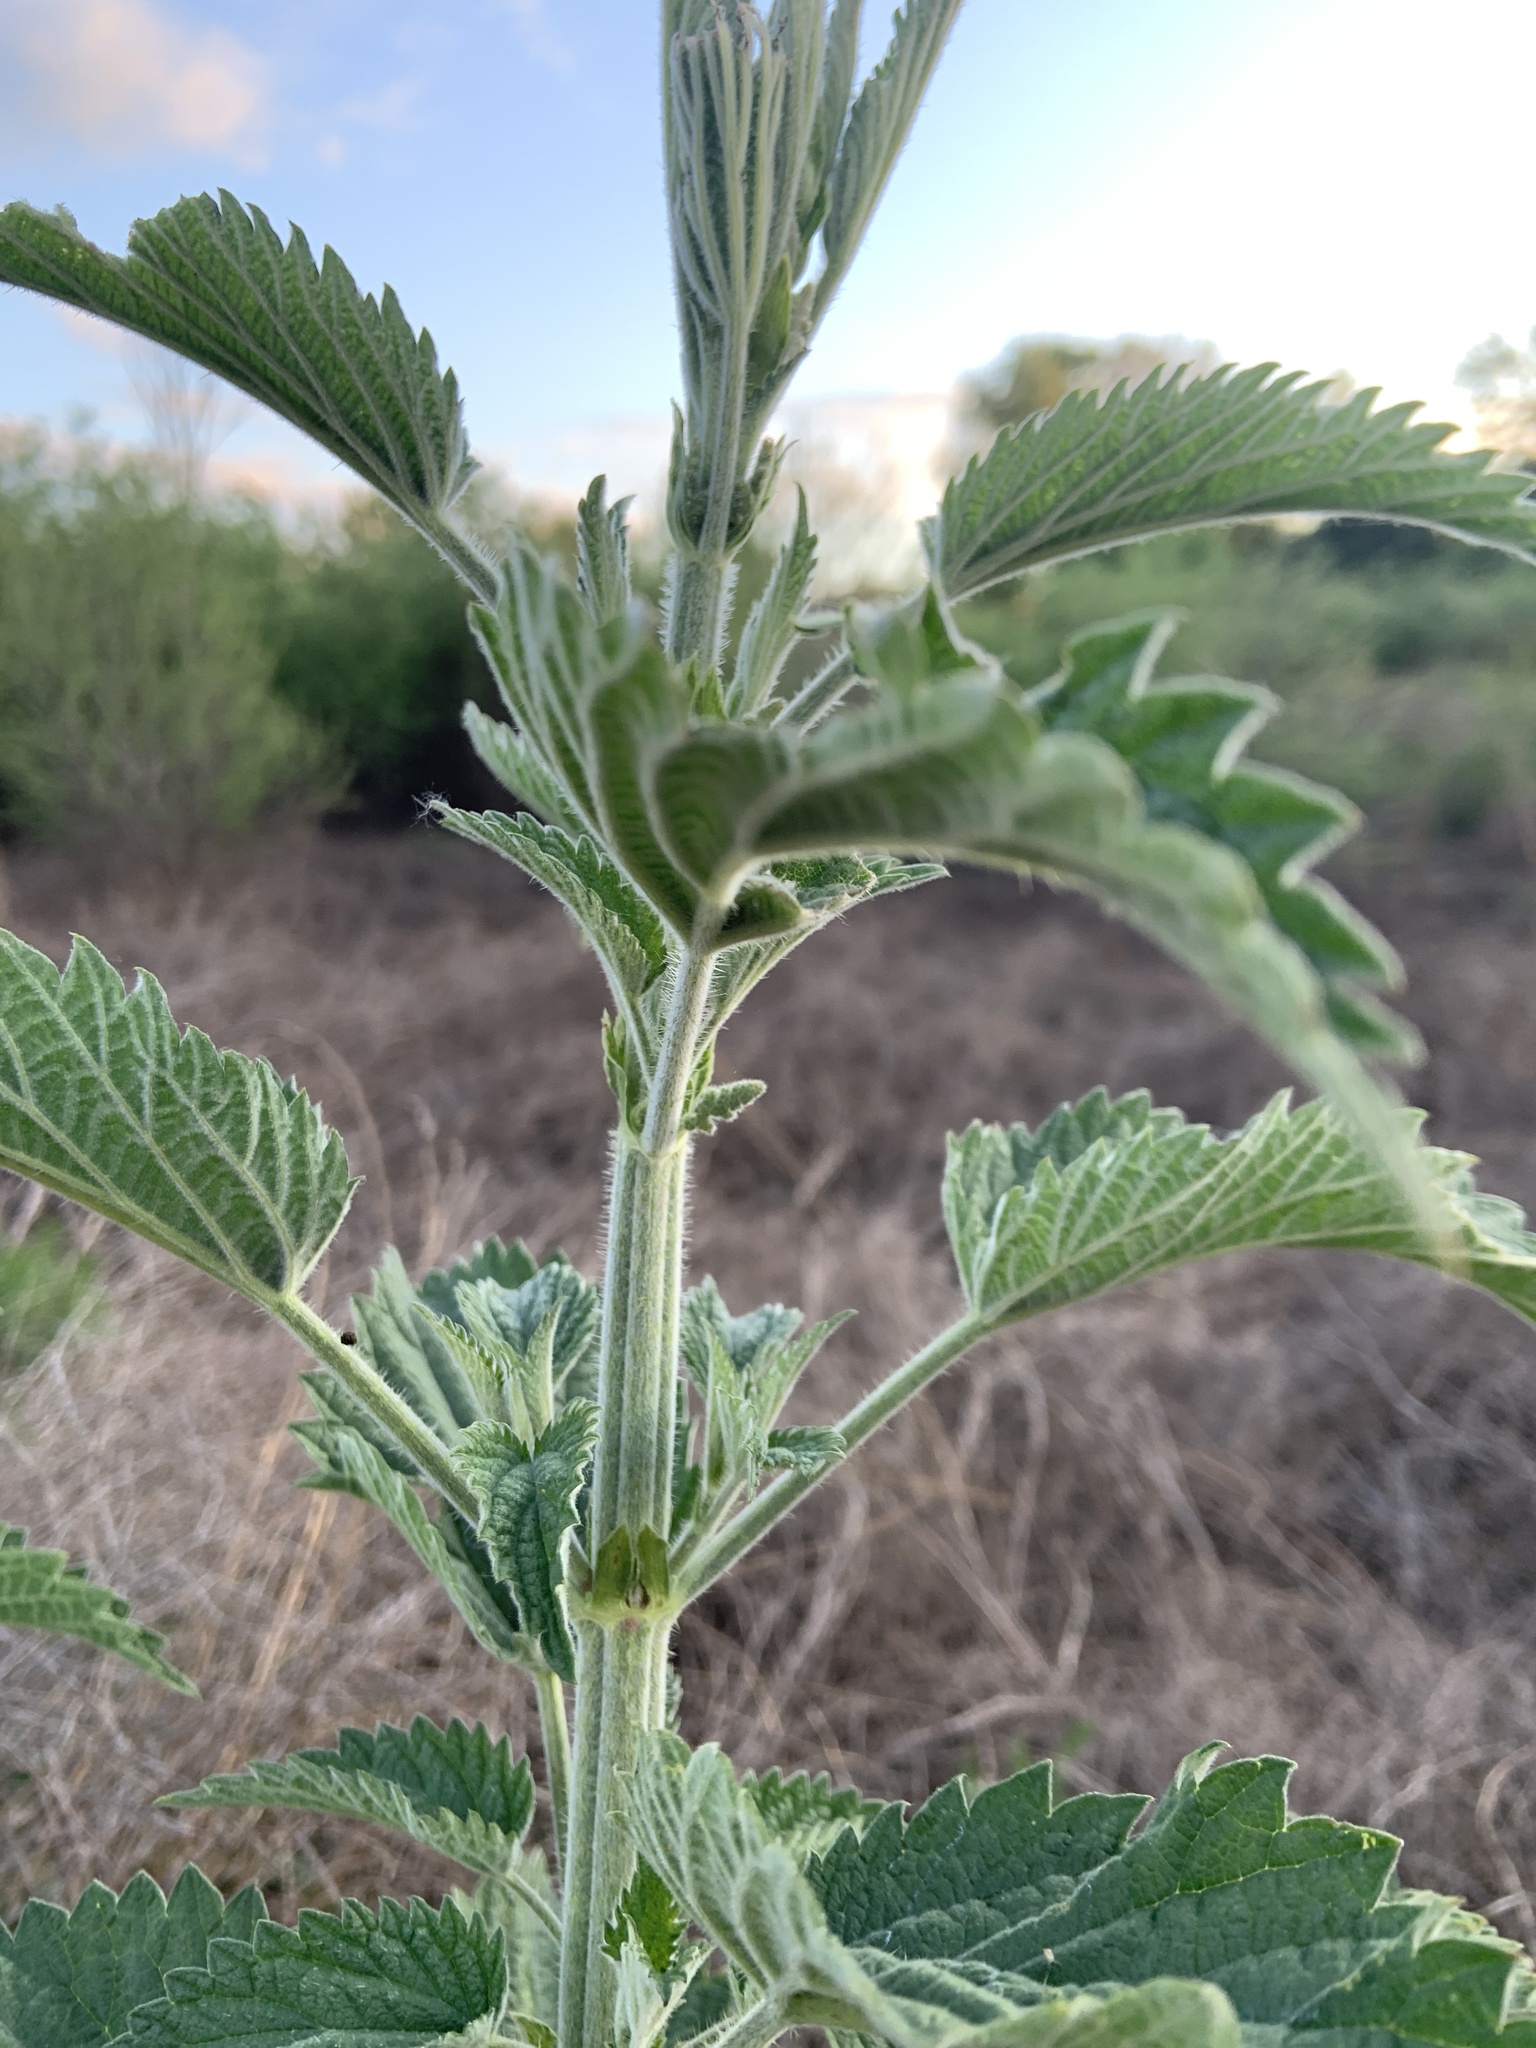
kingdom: Plantae
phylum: Tracheophyta
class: Magnoliopsida
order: Rosales
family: Urticaceae
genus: Urtica
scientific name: Urtica dioica
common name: Common nettle
